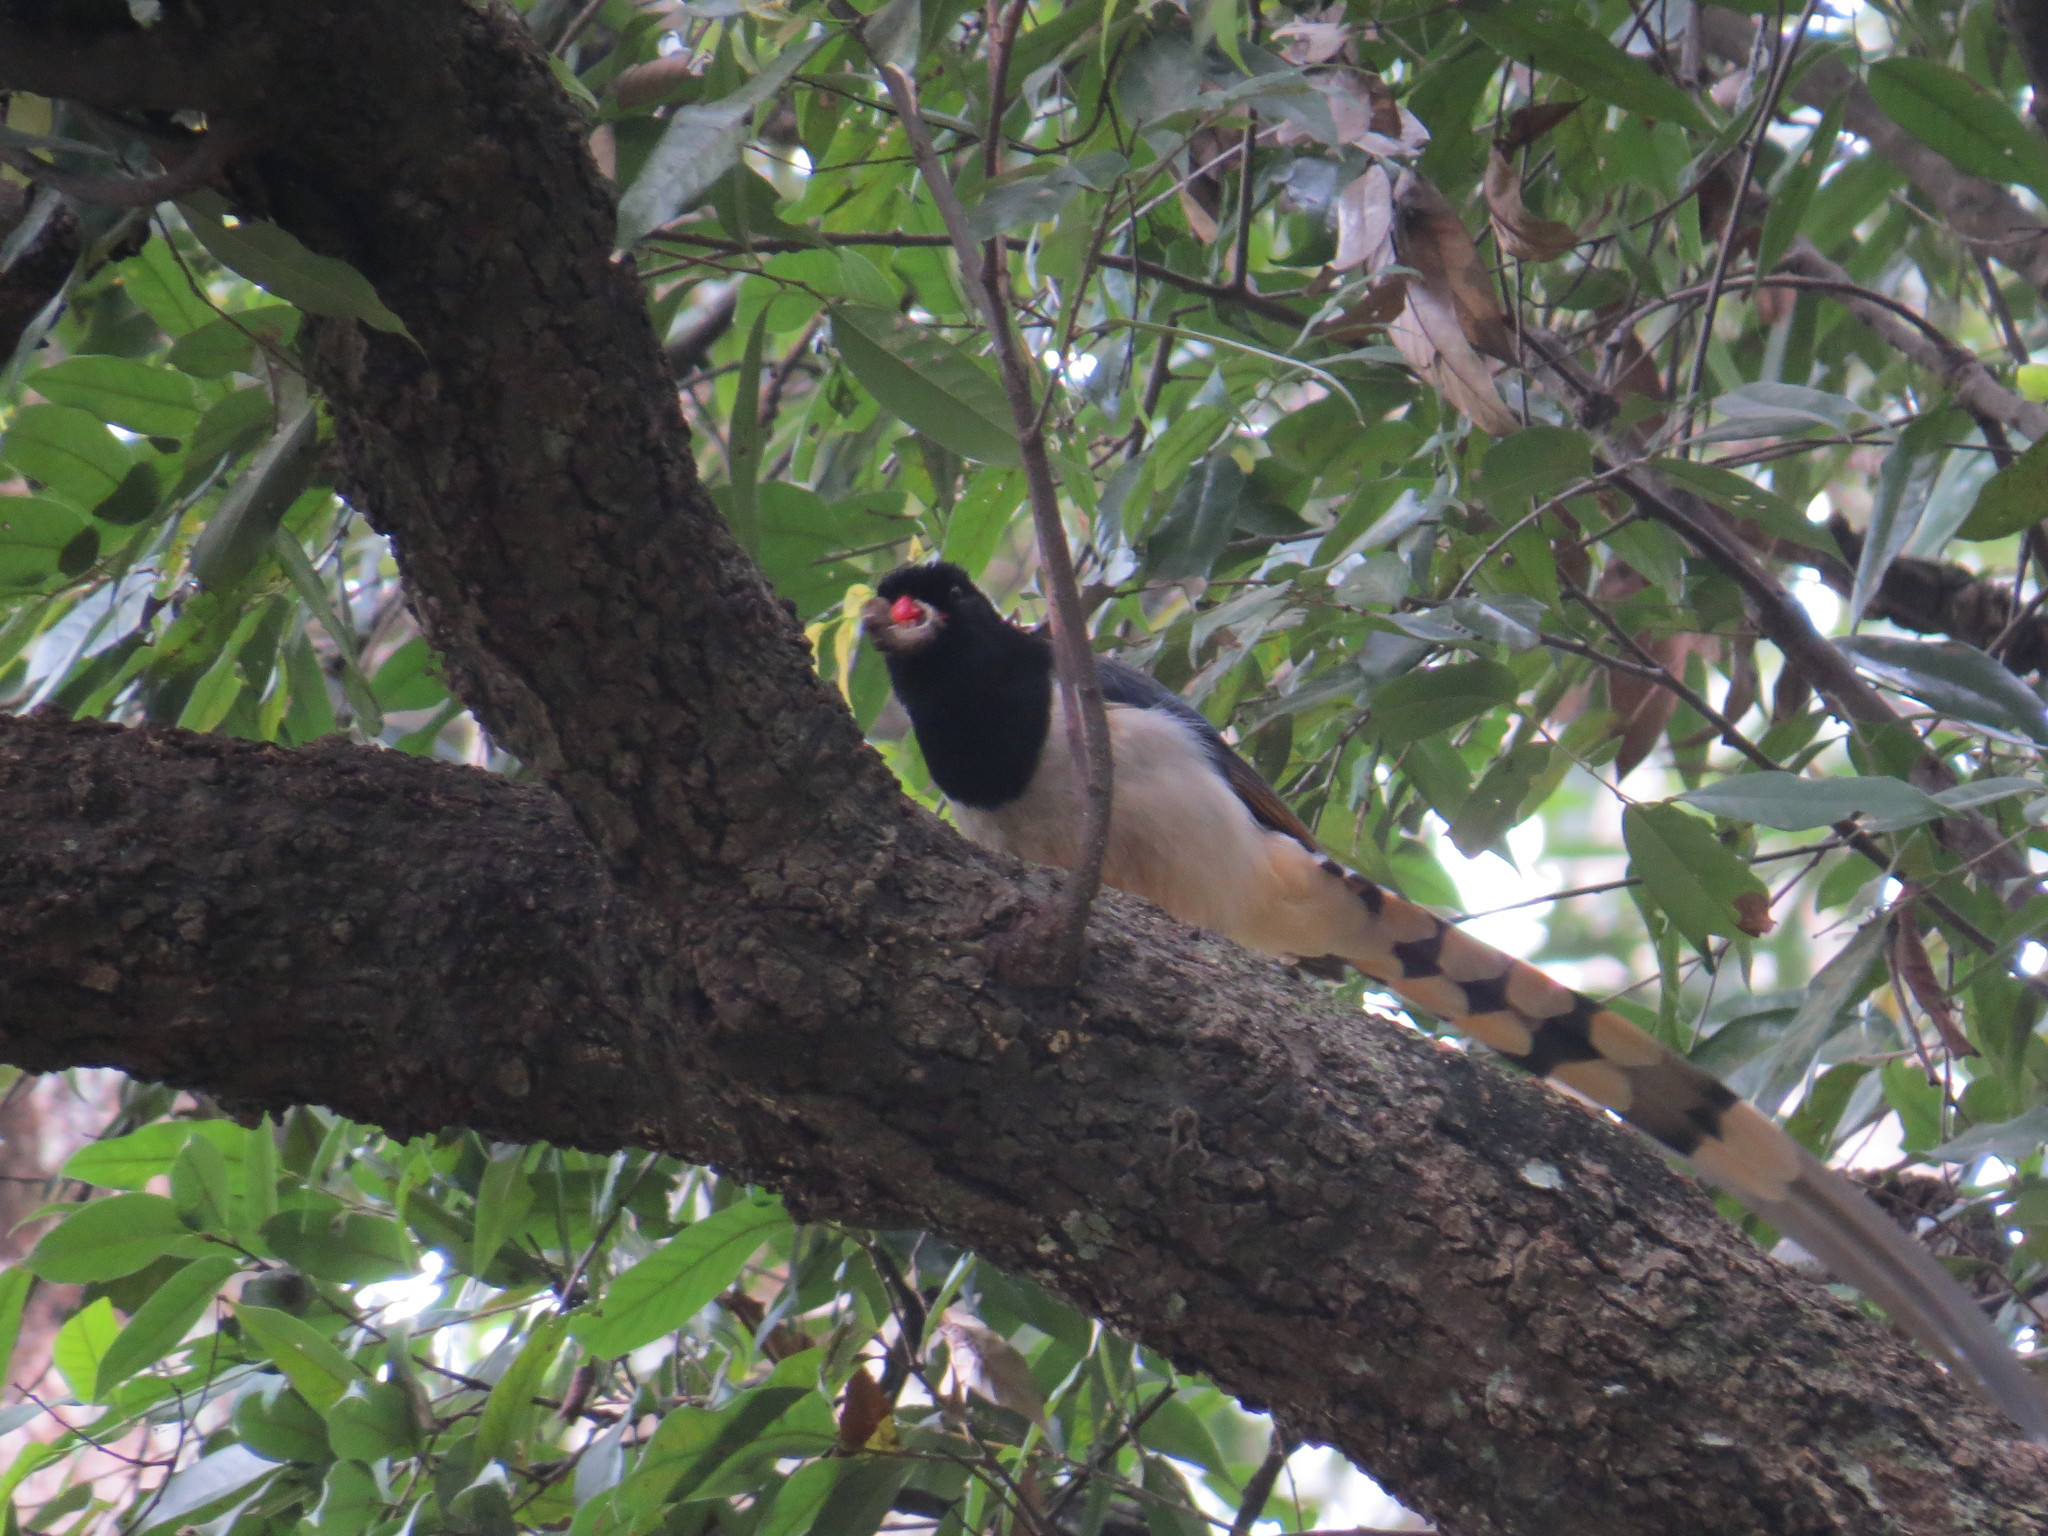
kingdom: Animalia
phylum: Chordata
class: Aves
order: Passeriformes
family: Corvidae
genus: Urocissa
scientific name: Urocissa erythroryncha
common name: Red-billed blue magpie
